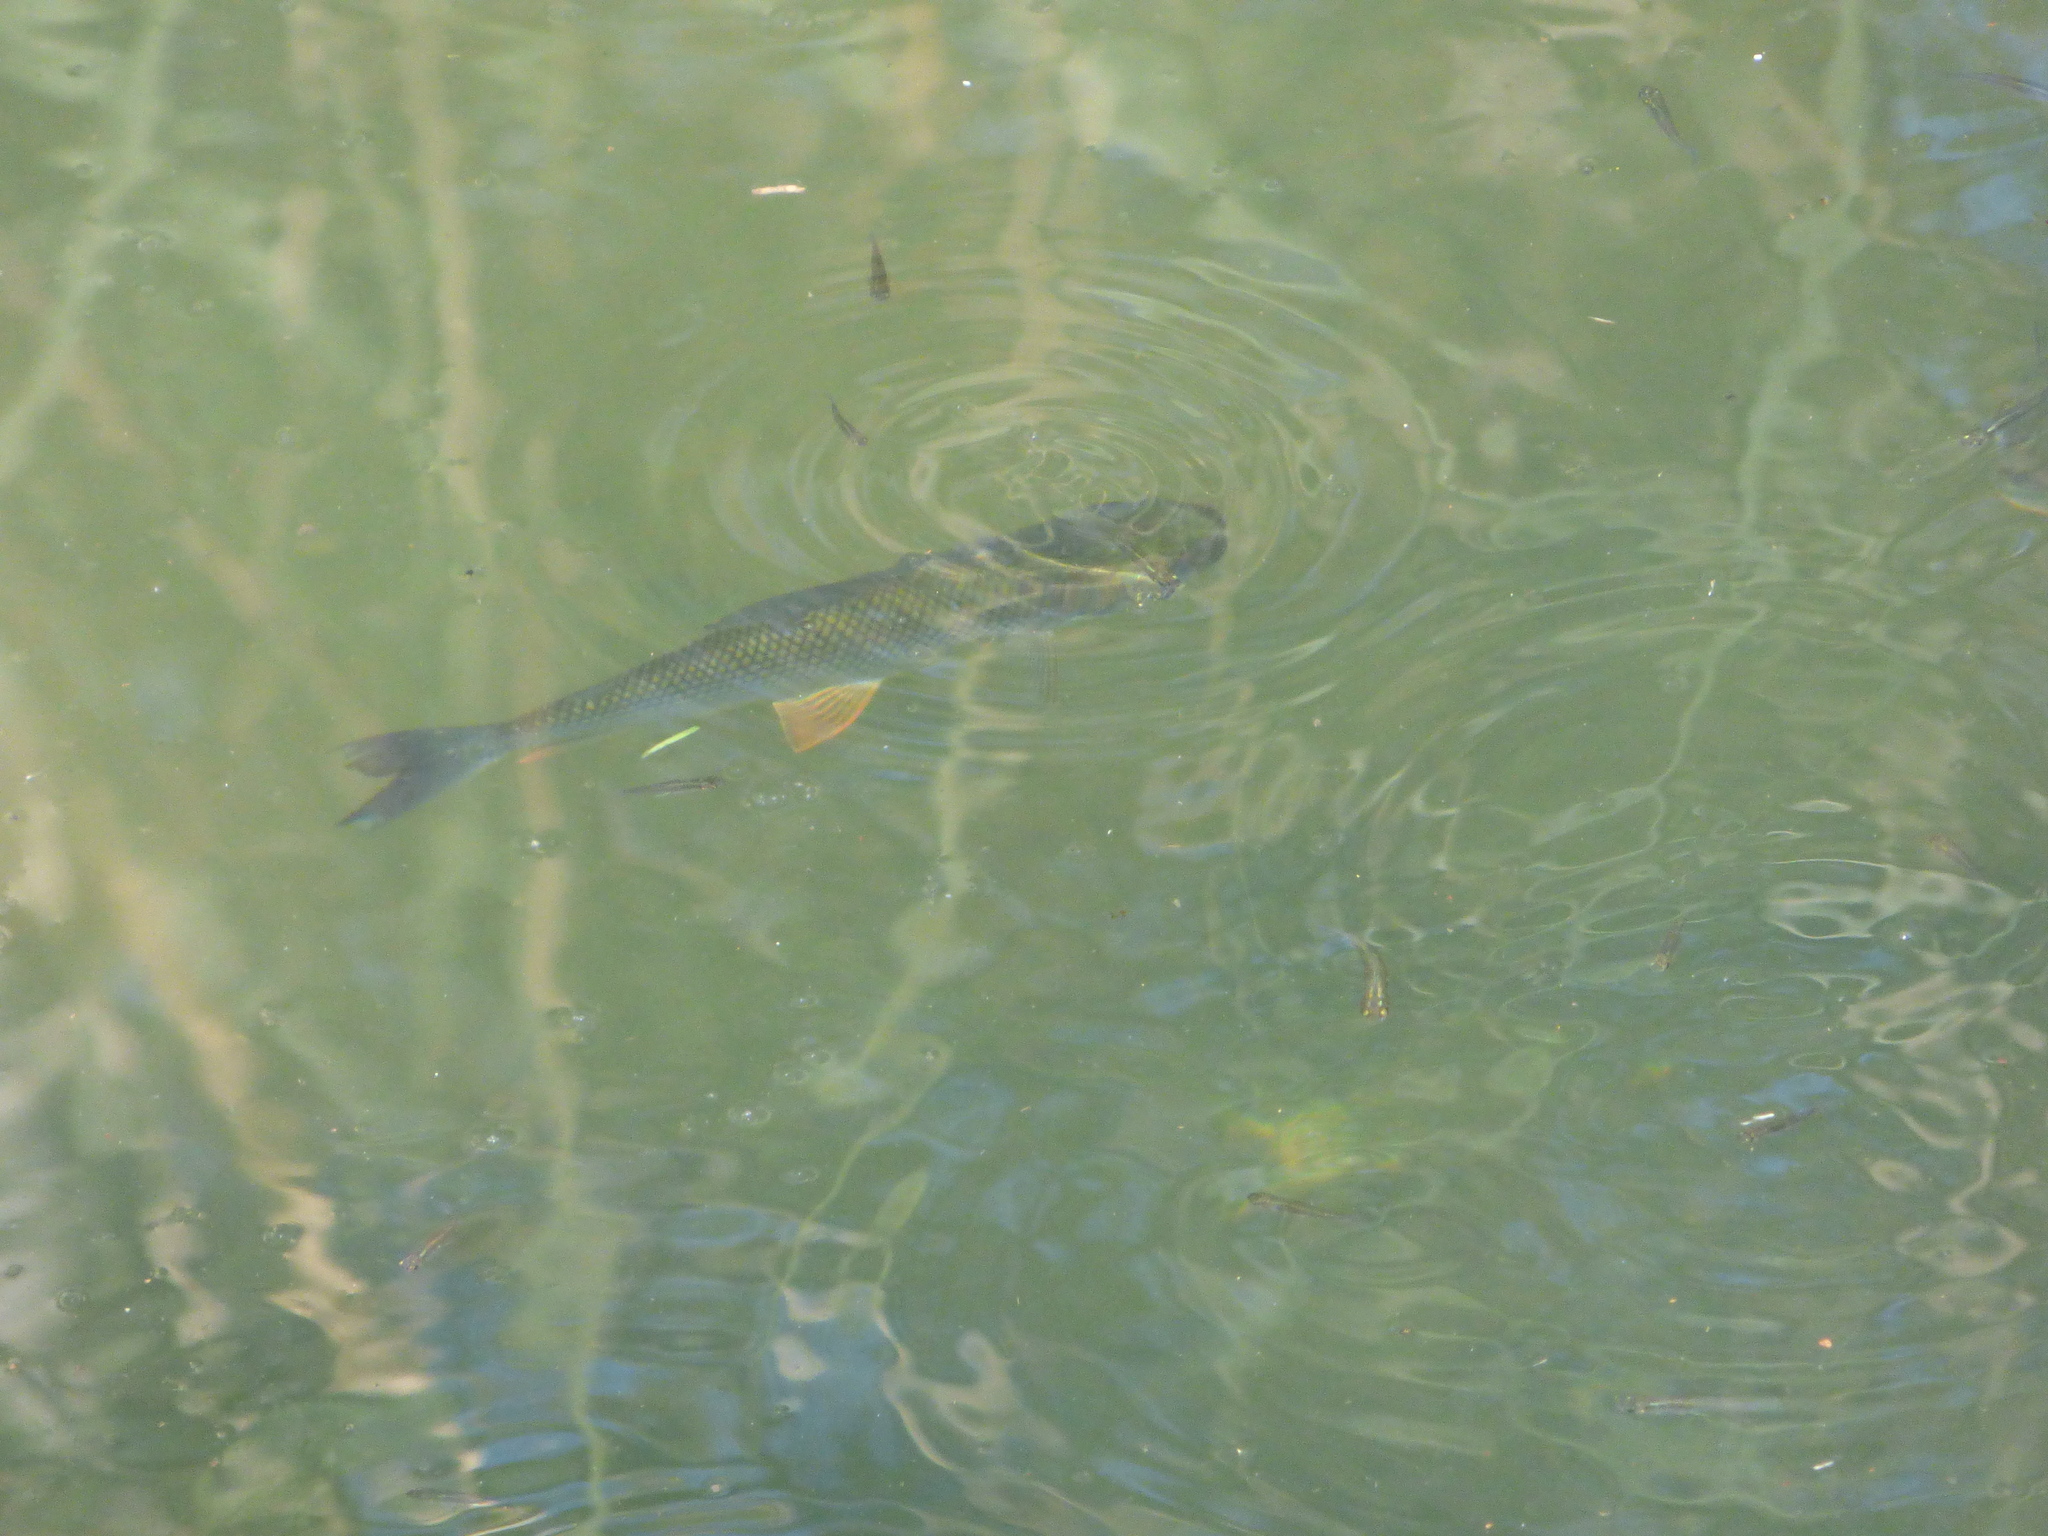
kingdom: Animalia
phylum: Chordata
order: Characiformes
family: Prochilodontidae
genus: Prochilodus
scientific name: Prochilodus lineatus
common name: Curimbata
